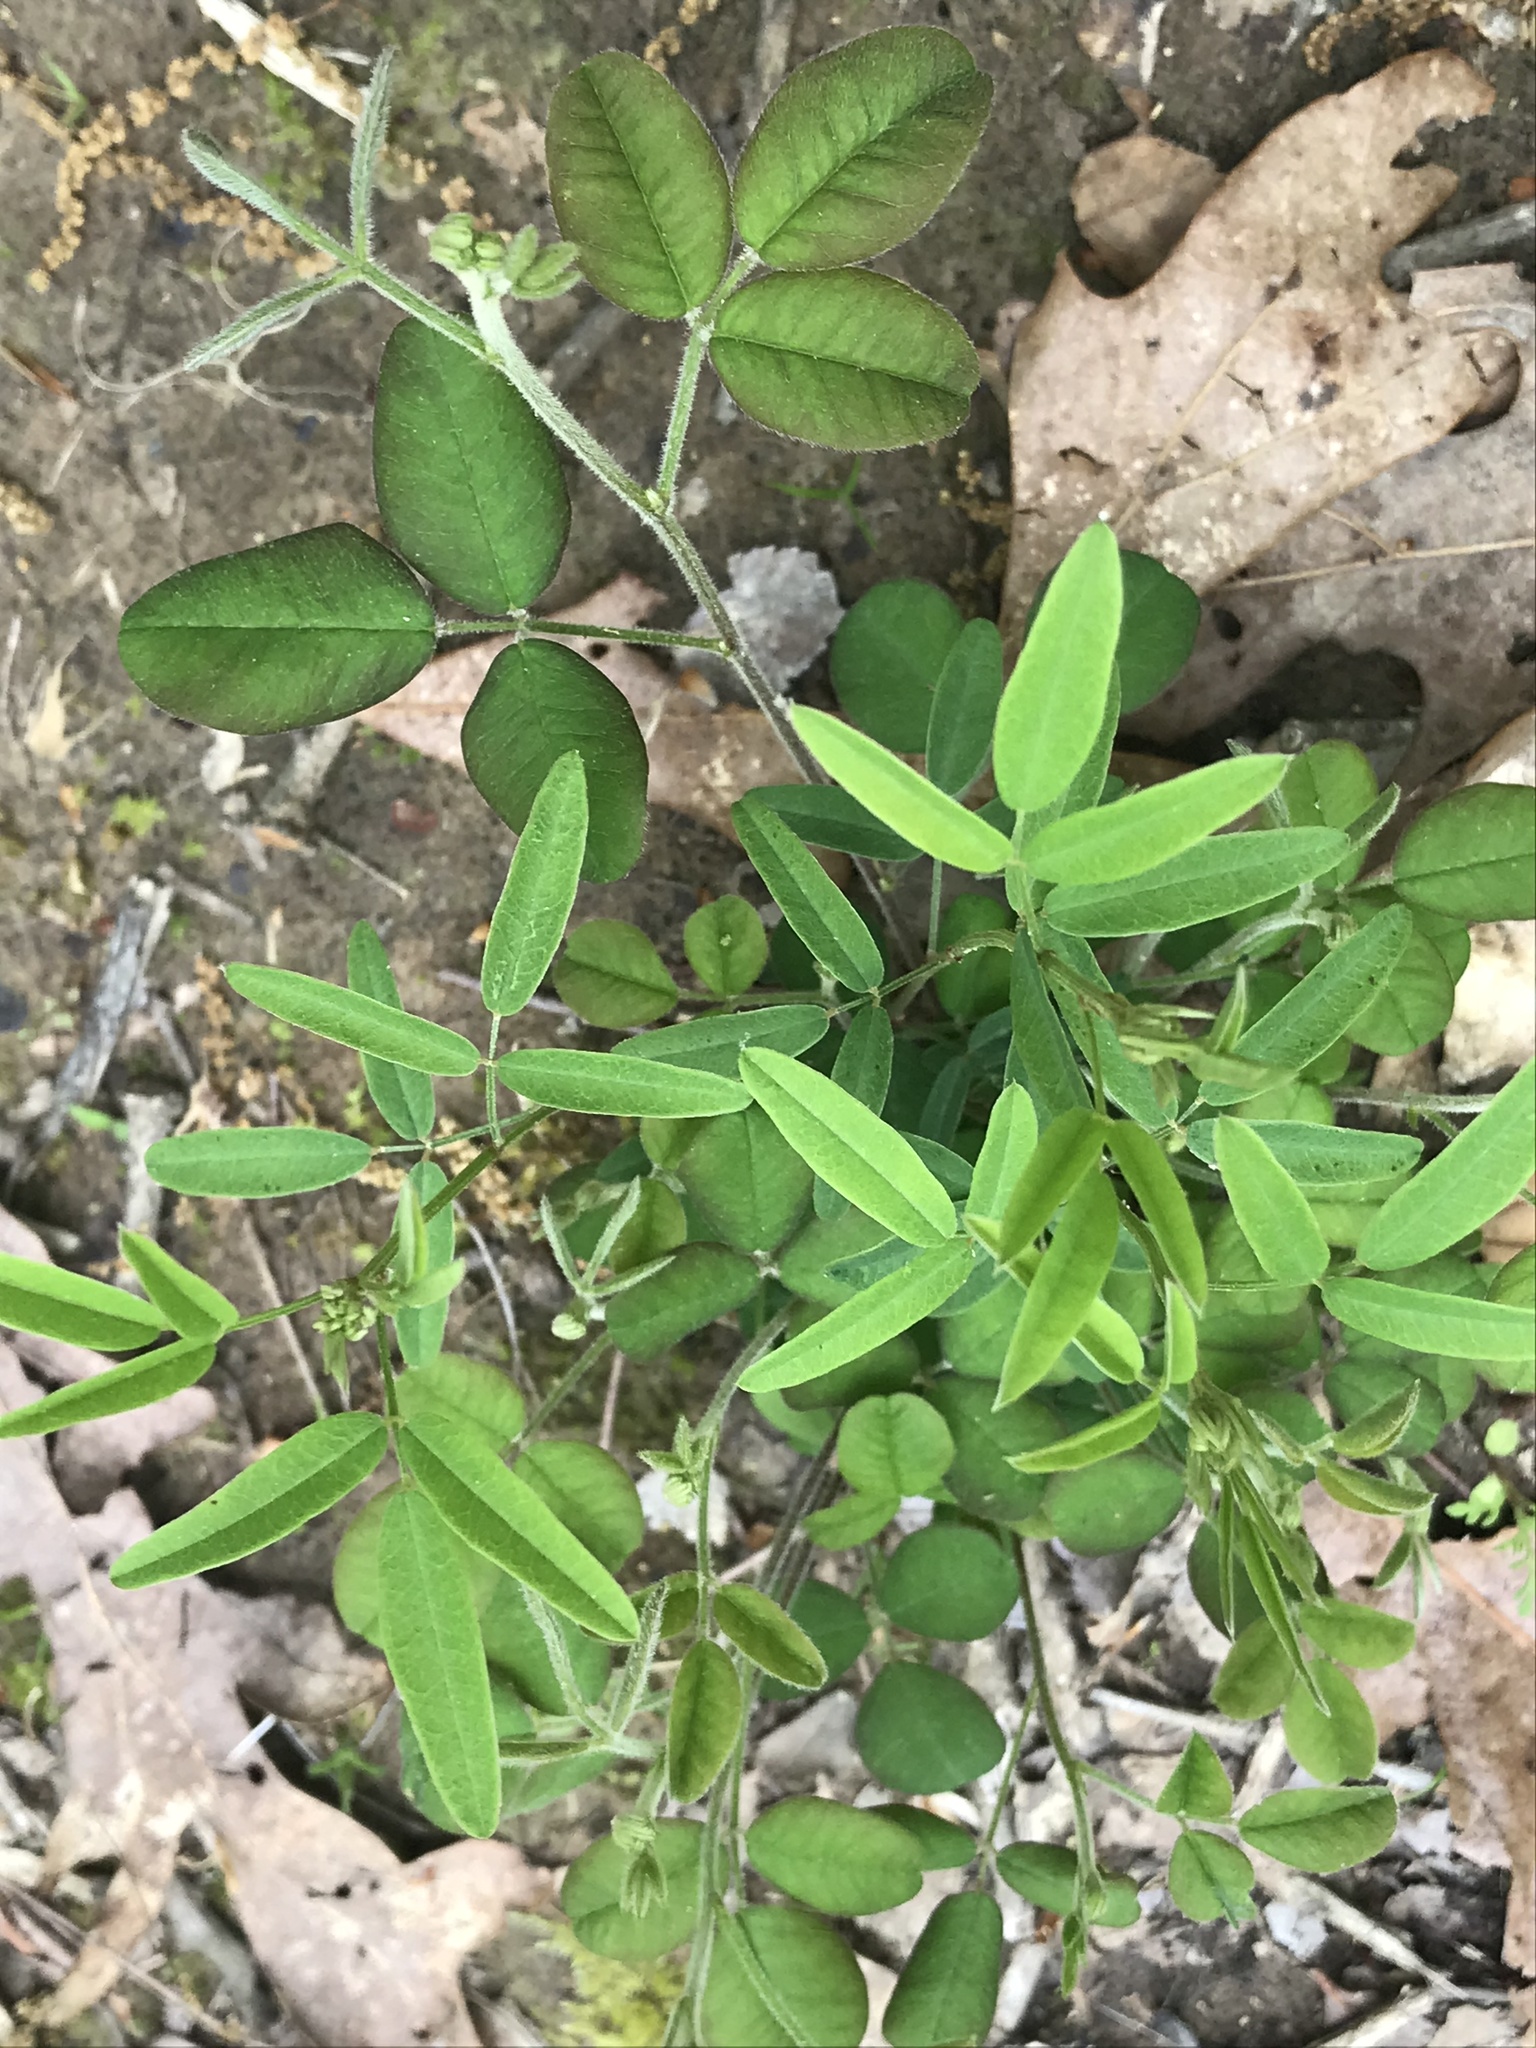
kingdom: Plantae
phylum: Tracheophyta
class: Magnoliopsida
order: Fabales
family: Fabaceae
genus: Desmodium
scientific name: Desmodium paniculatum
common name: Panicled tick-clover
